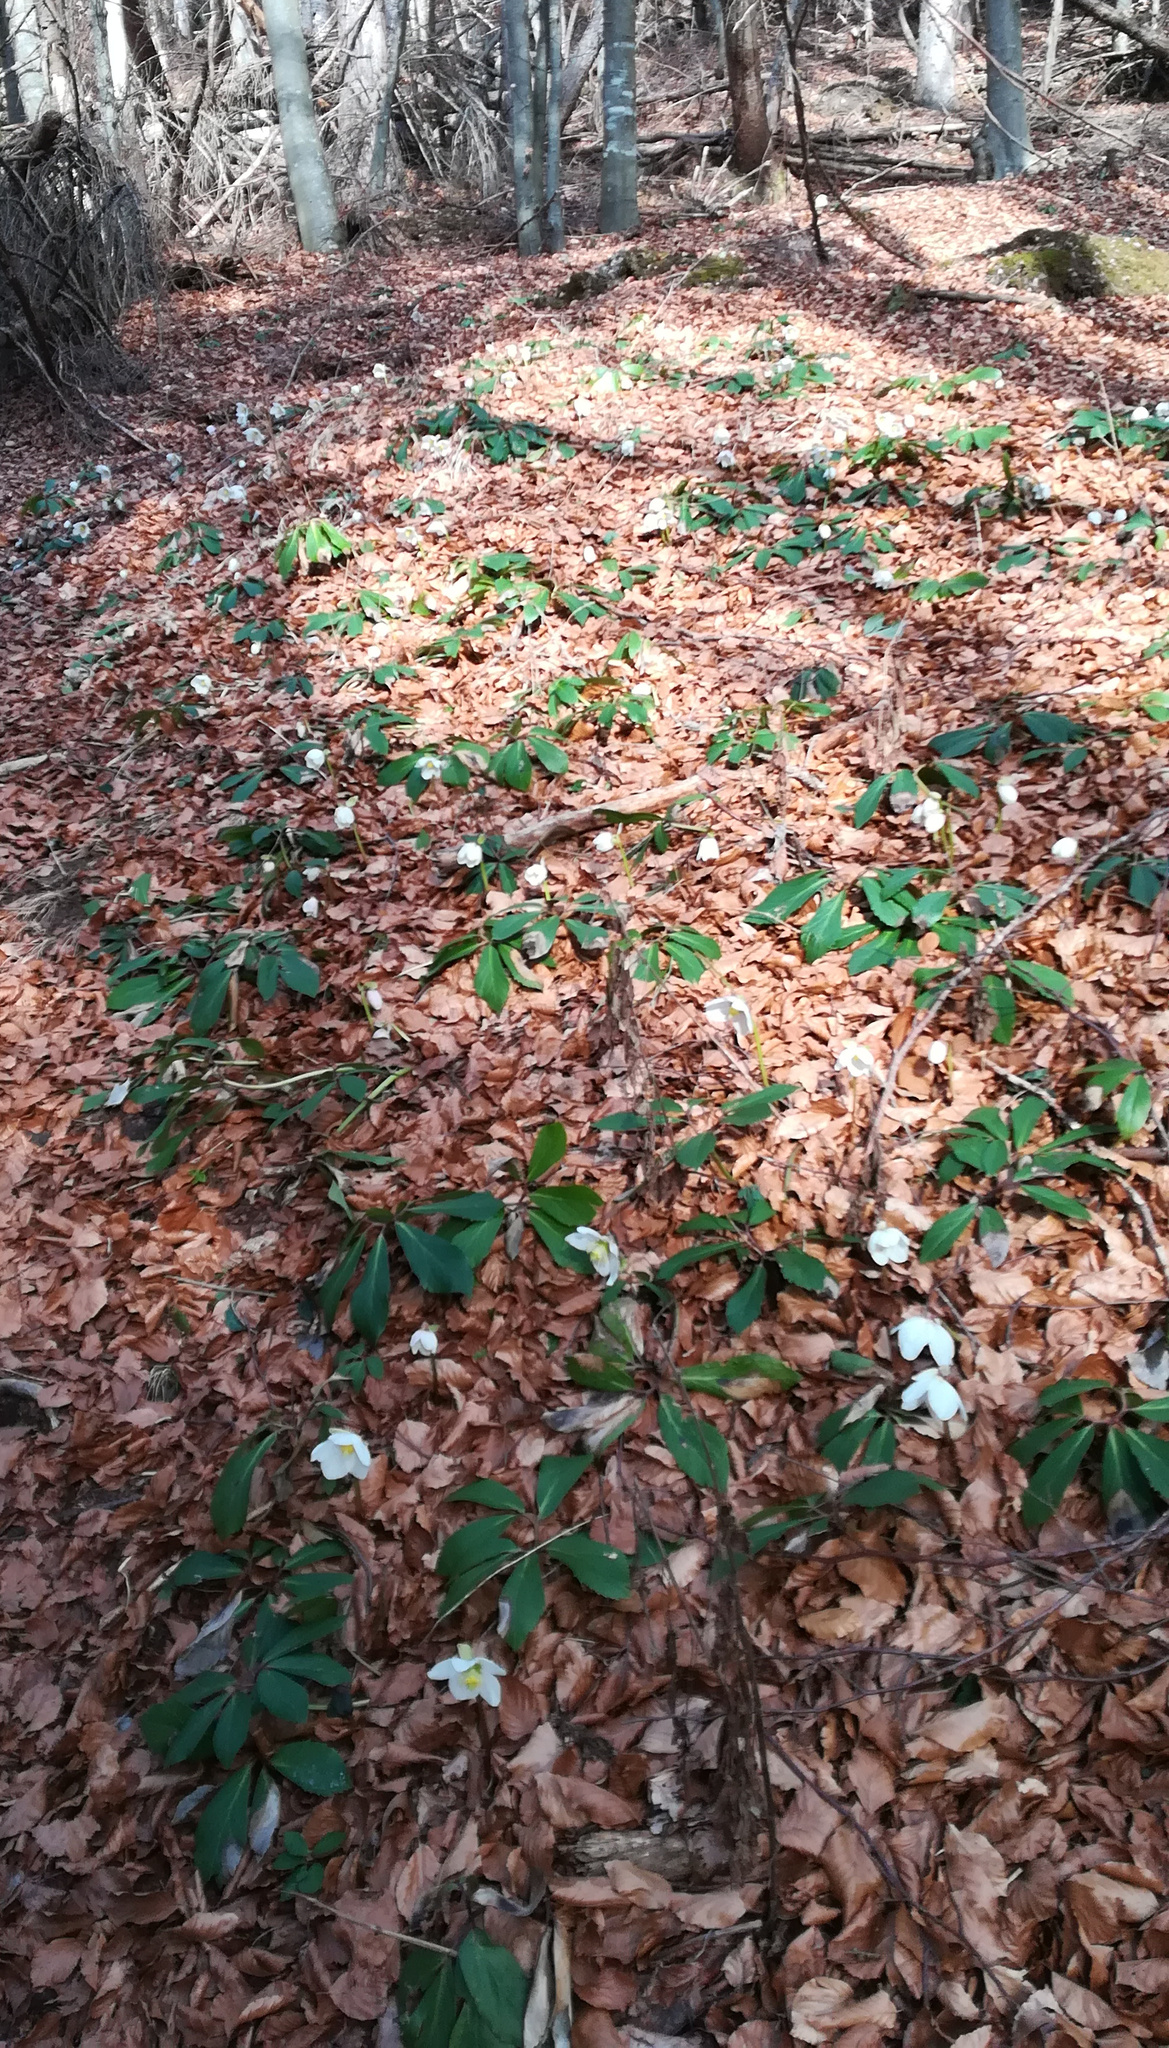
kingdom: Plantae
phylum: Tracheophyta
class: Magnoliopsida
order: Ranunculales
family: Ranunculaceae
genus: Helleborus
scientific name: Helleborus niger
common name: Black hellebore
